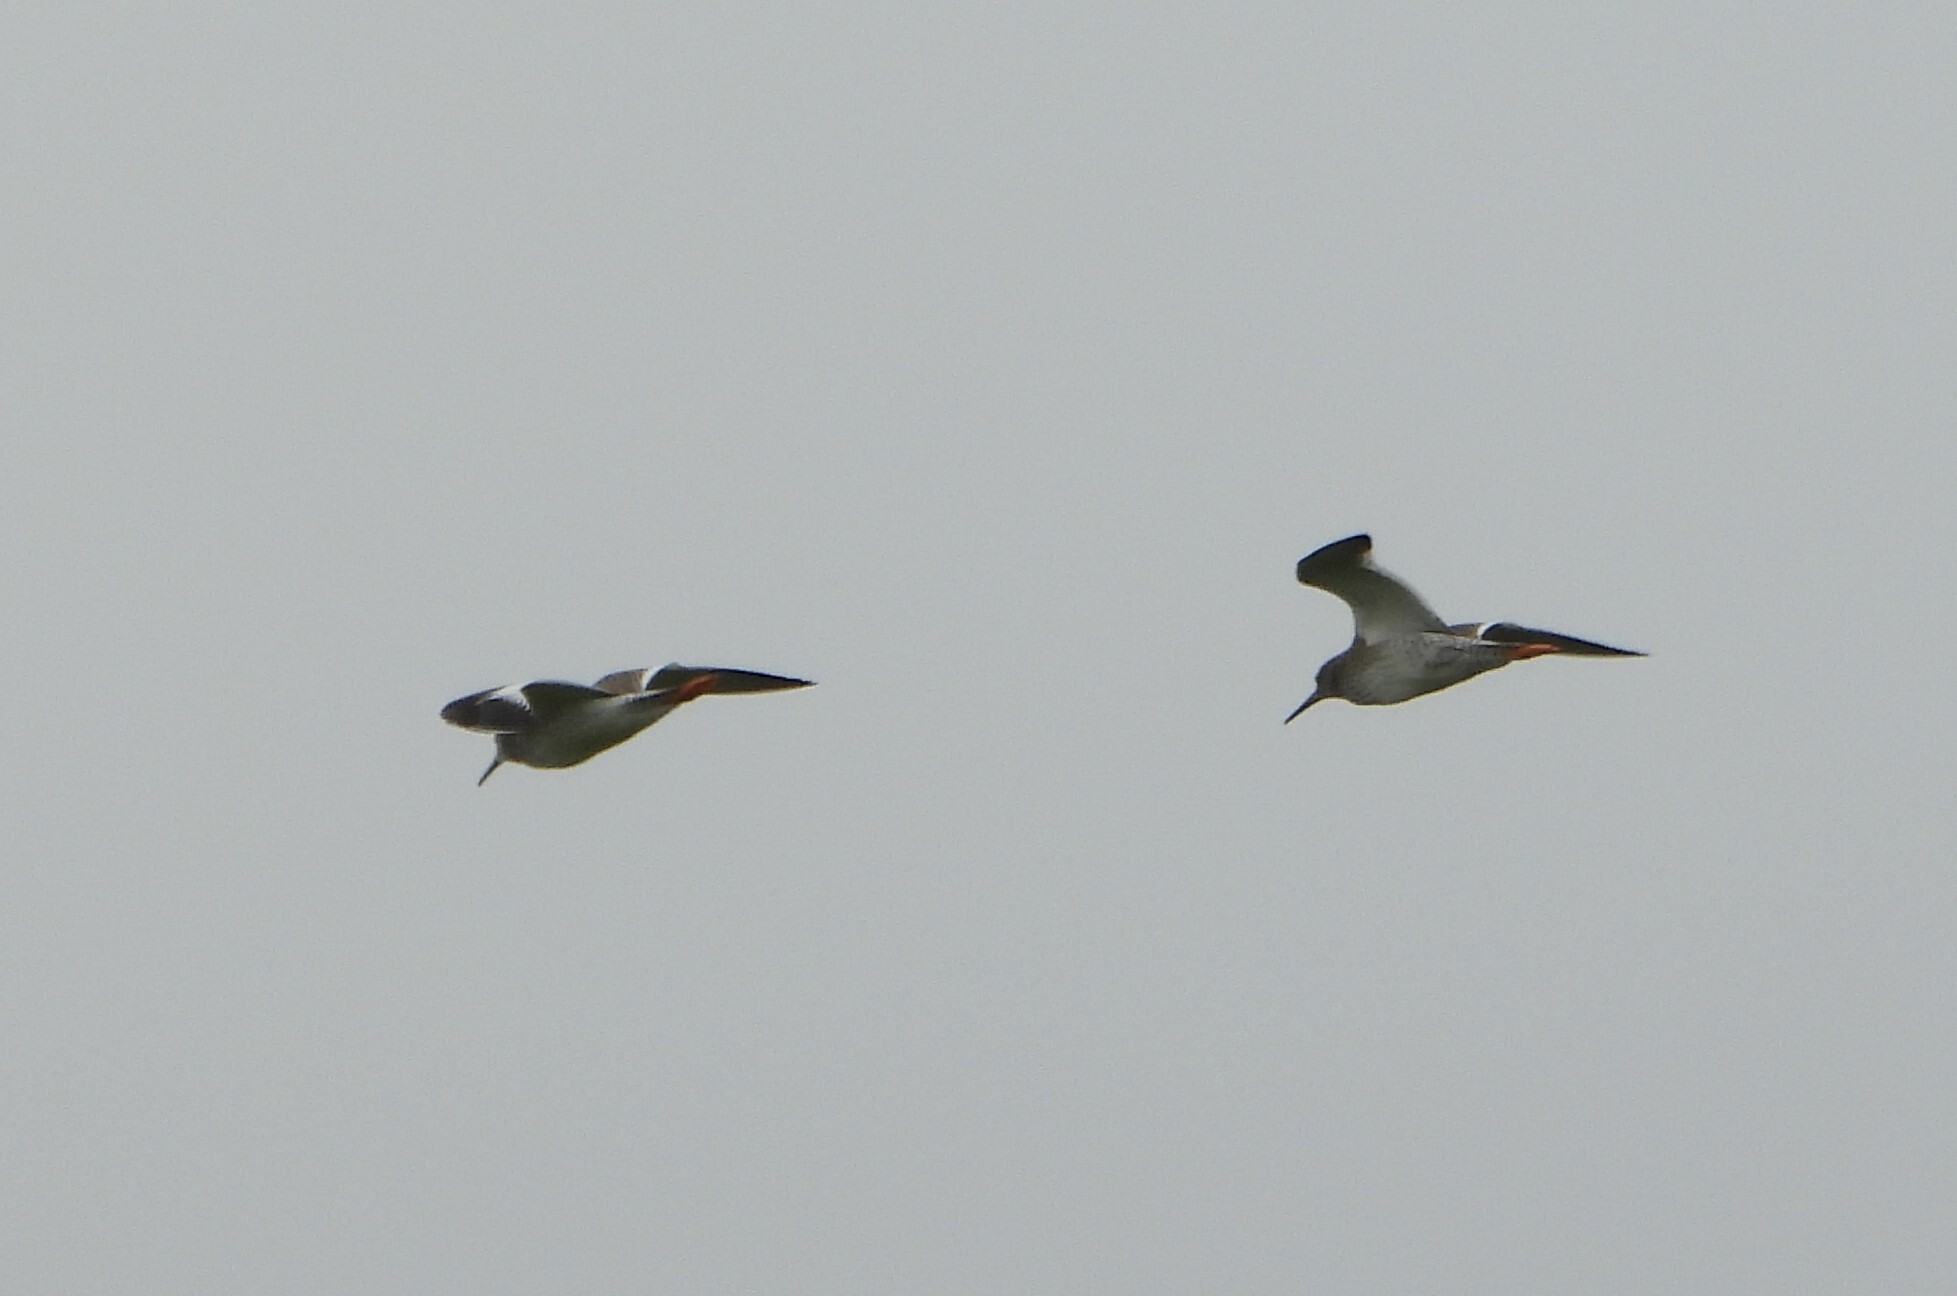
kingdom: Animalia
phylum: Chordata
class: Aves
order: Charadriiformes
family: Scolopacidae
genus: Tringa
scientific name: Tringa totanus
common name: Common redshank
